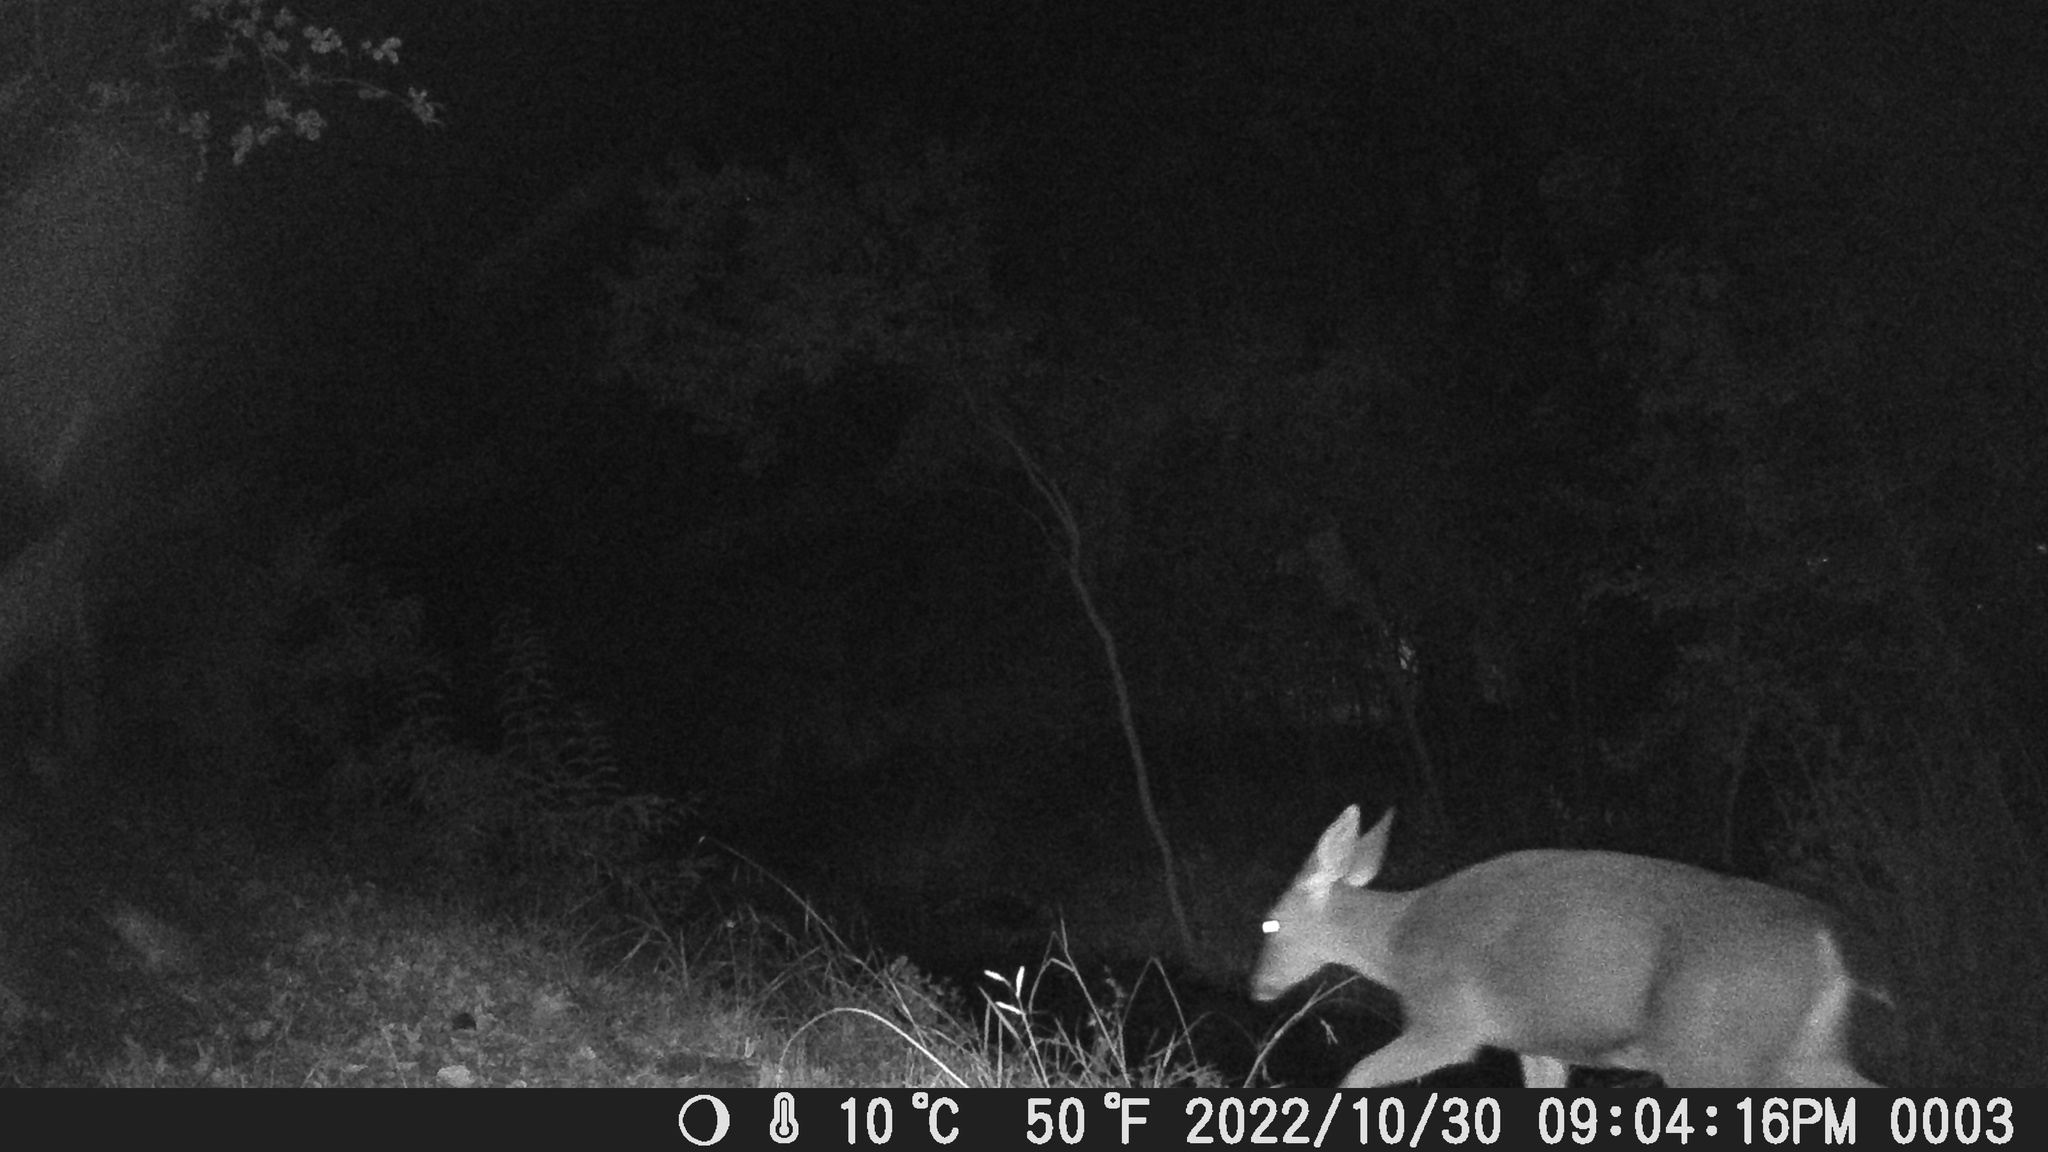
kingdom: Animalia
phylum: Chordata
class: Mammalia
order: Artiodactyla
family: Cervidae
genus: Odocoileus
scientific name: Odocoileus hemionus
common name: Mule deer
